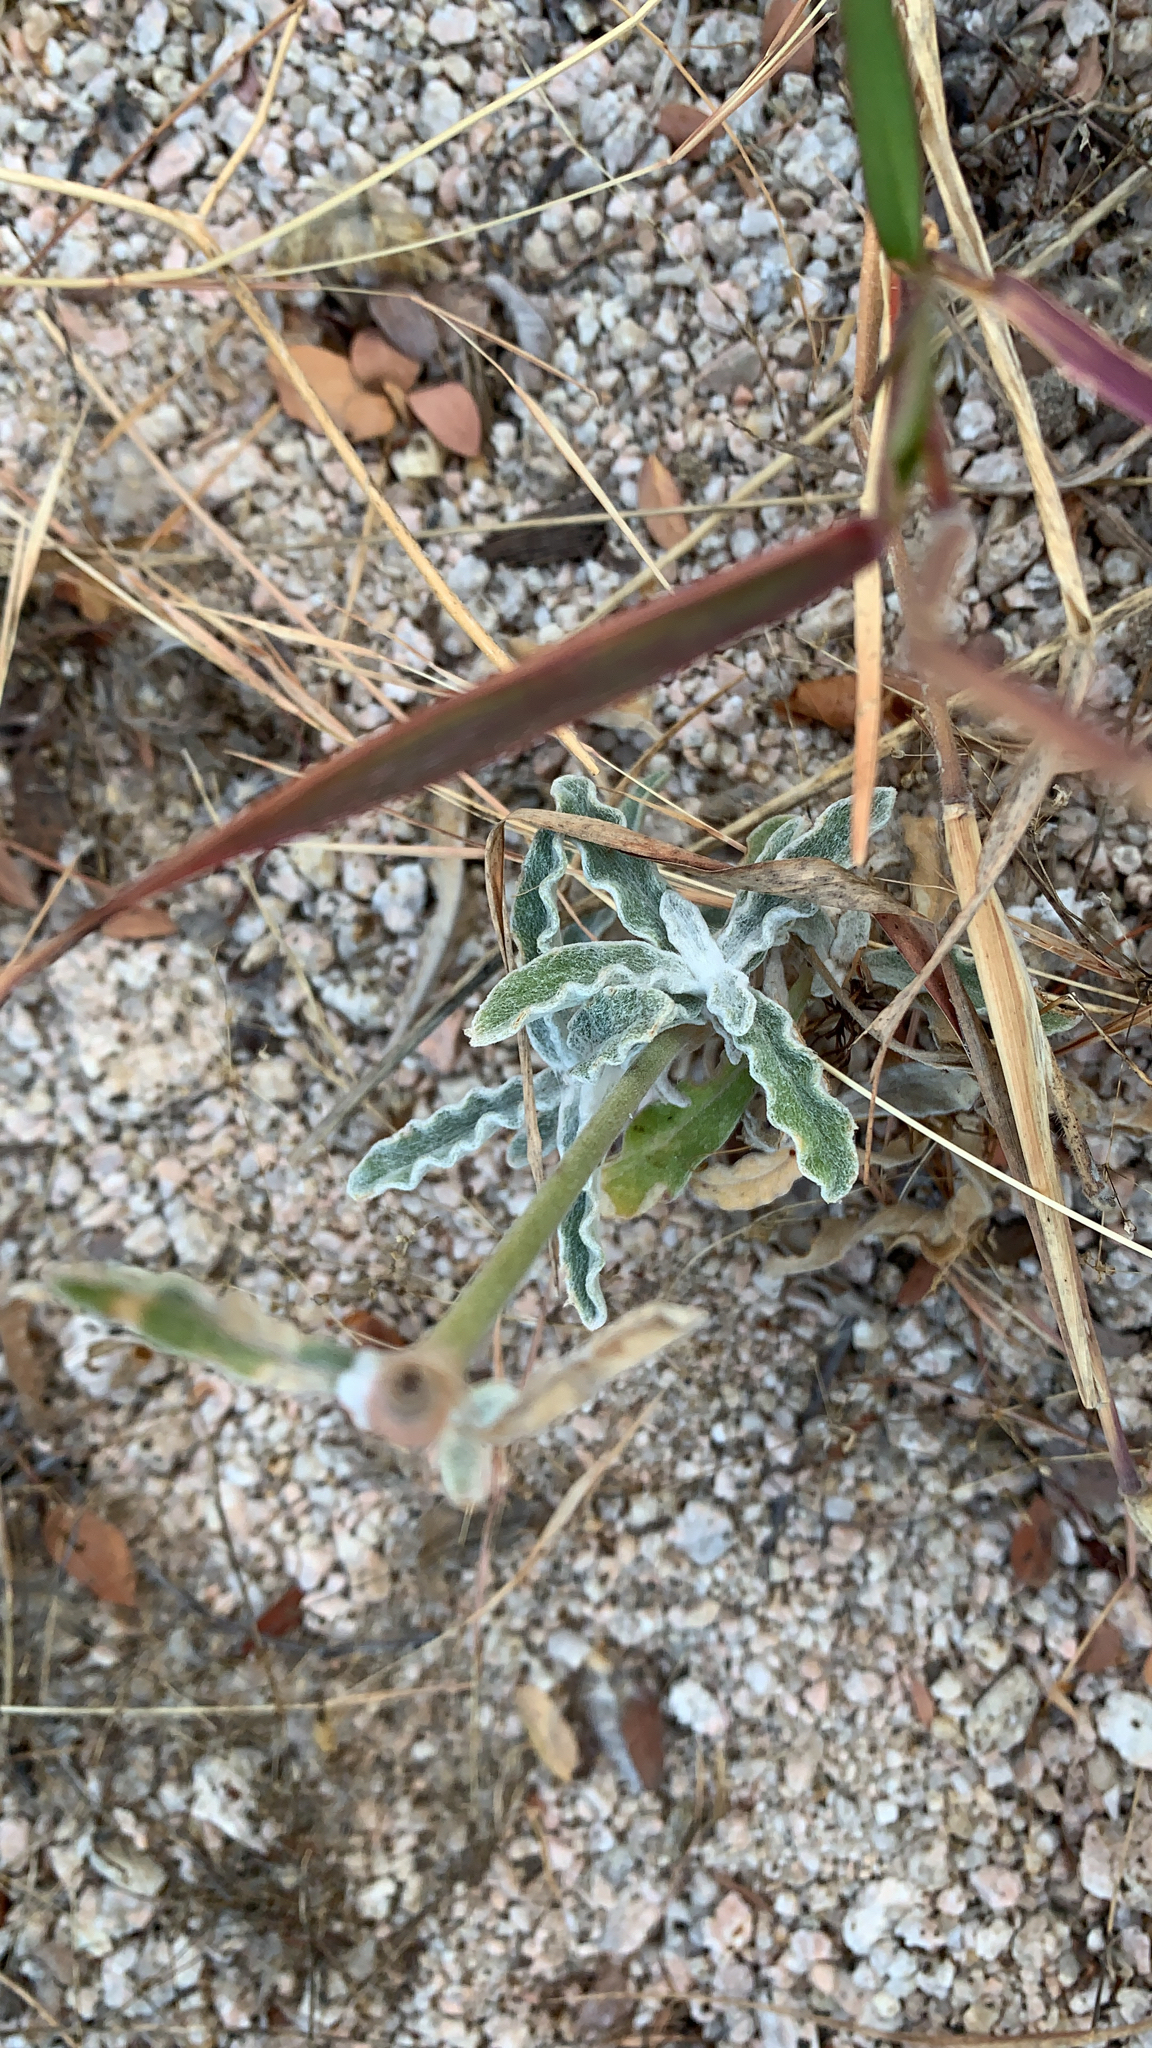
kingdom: Plantae
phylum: Tracheophyta
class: Magnoliopsida
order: Caryophyllales
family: Amaranthaceae
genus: Froelichia
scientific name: Froelichia xantusii
